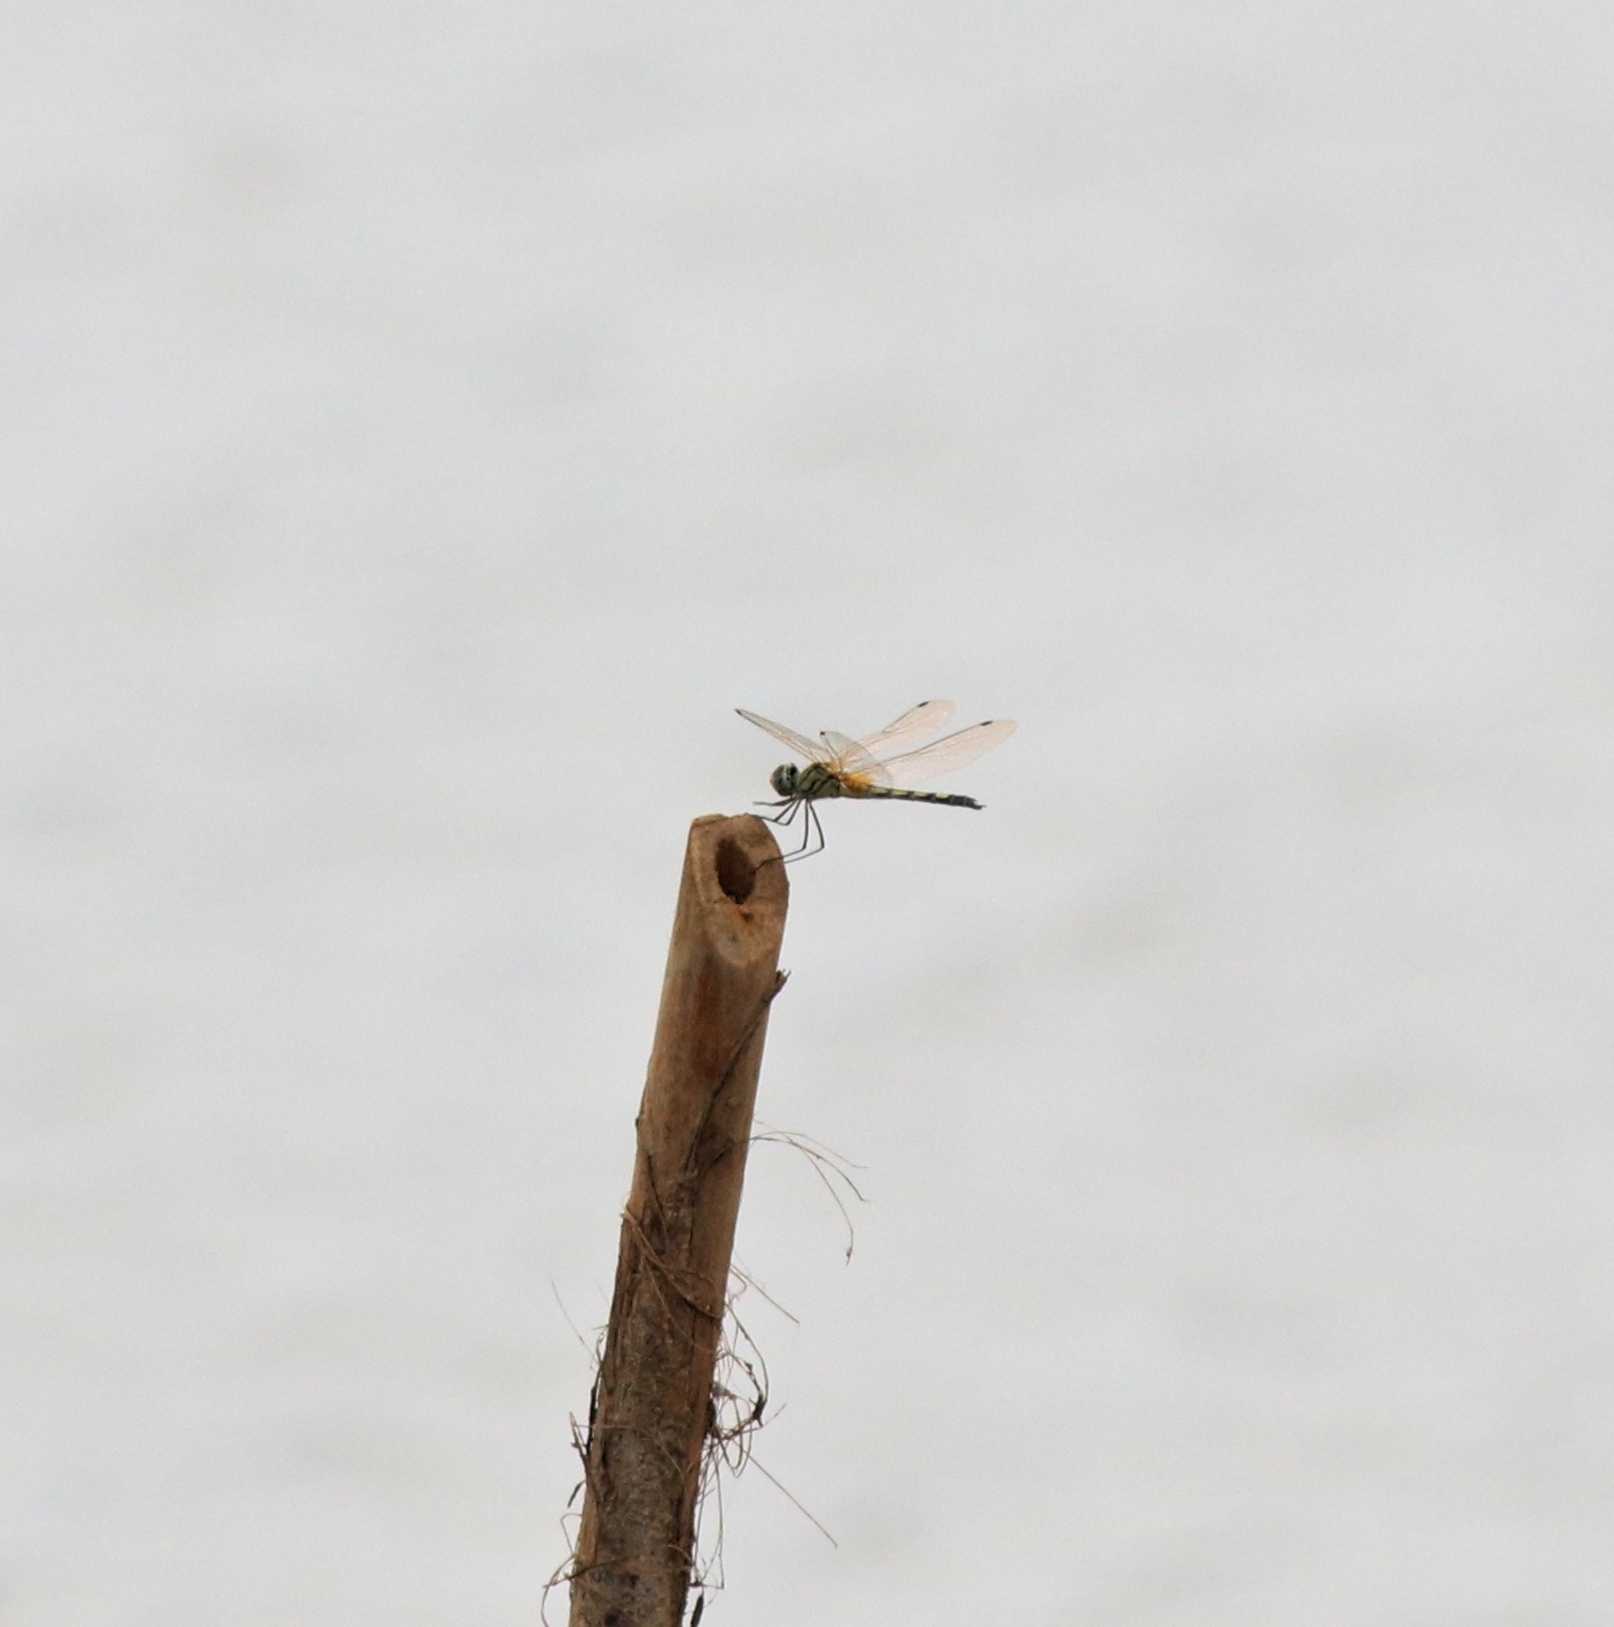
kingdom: Animalia
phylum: Arthropoda
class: Insecta
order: Odonata
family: Libellulidae
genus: Trithemis
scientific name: Trithemis pallidinervis
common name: Dancing dropwing
